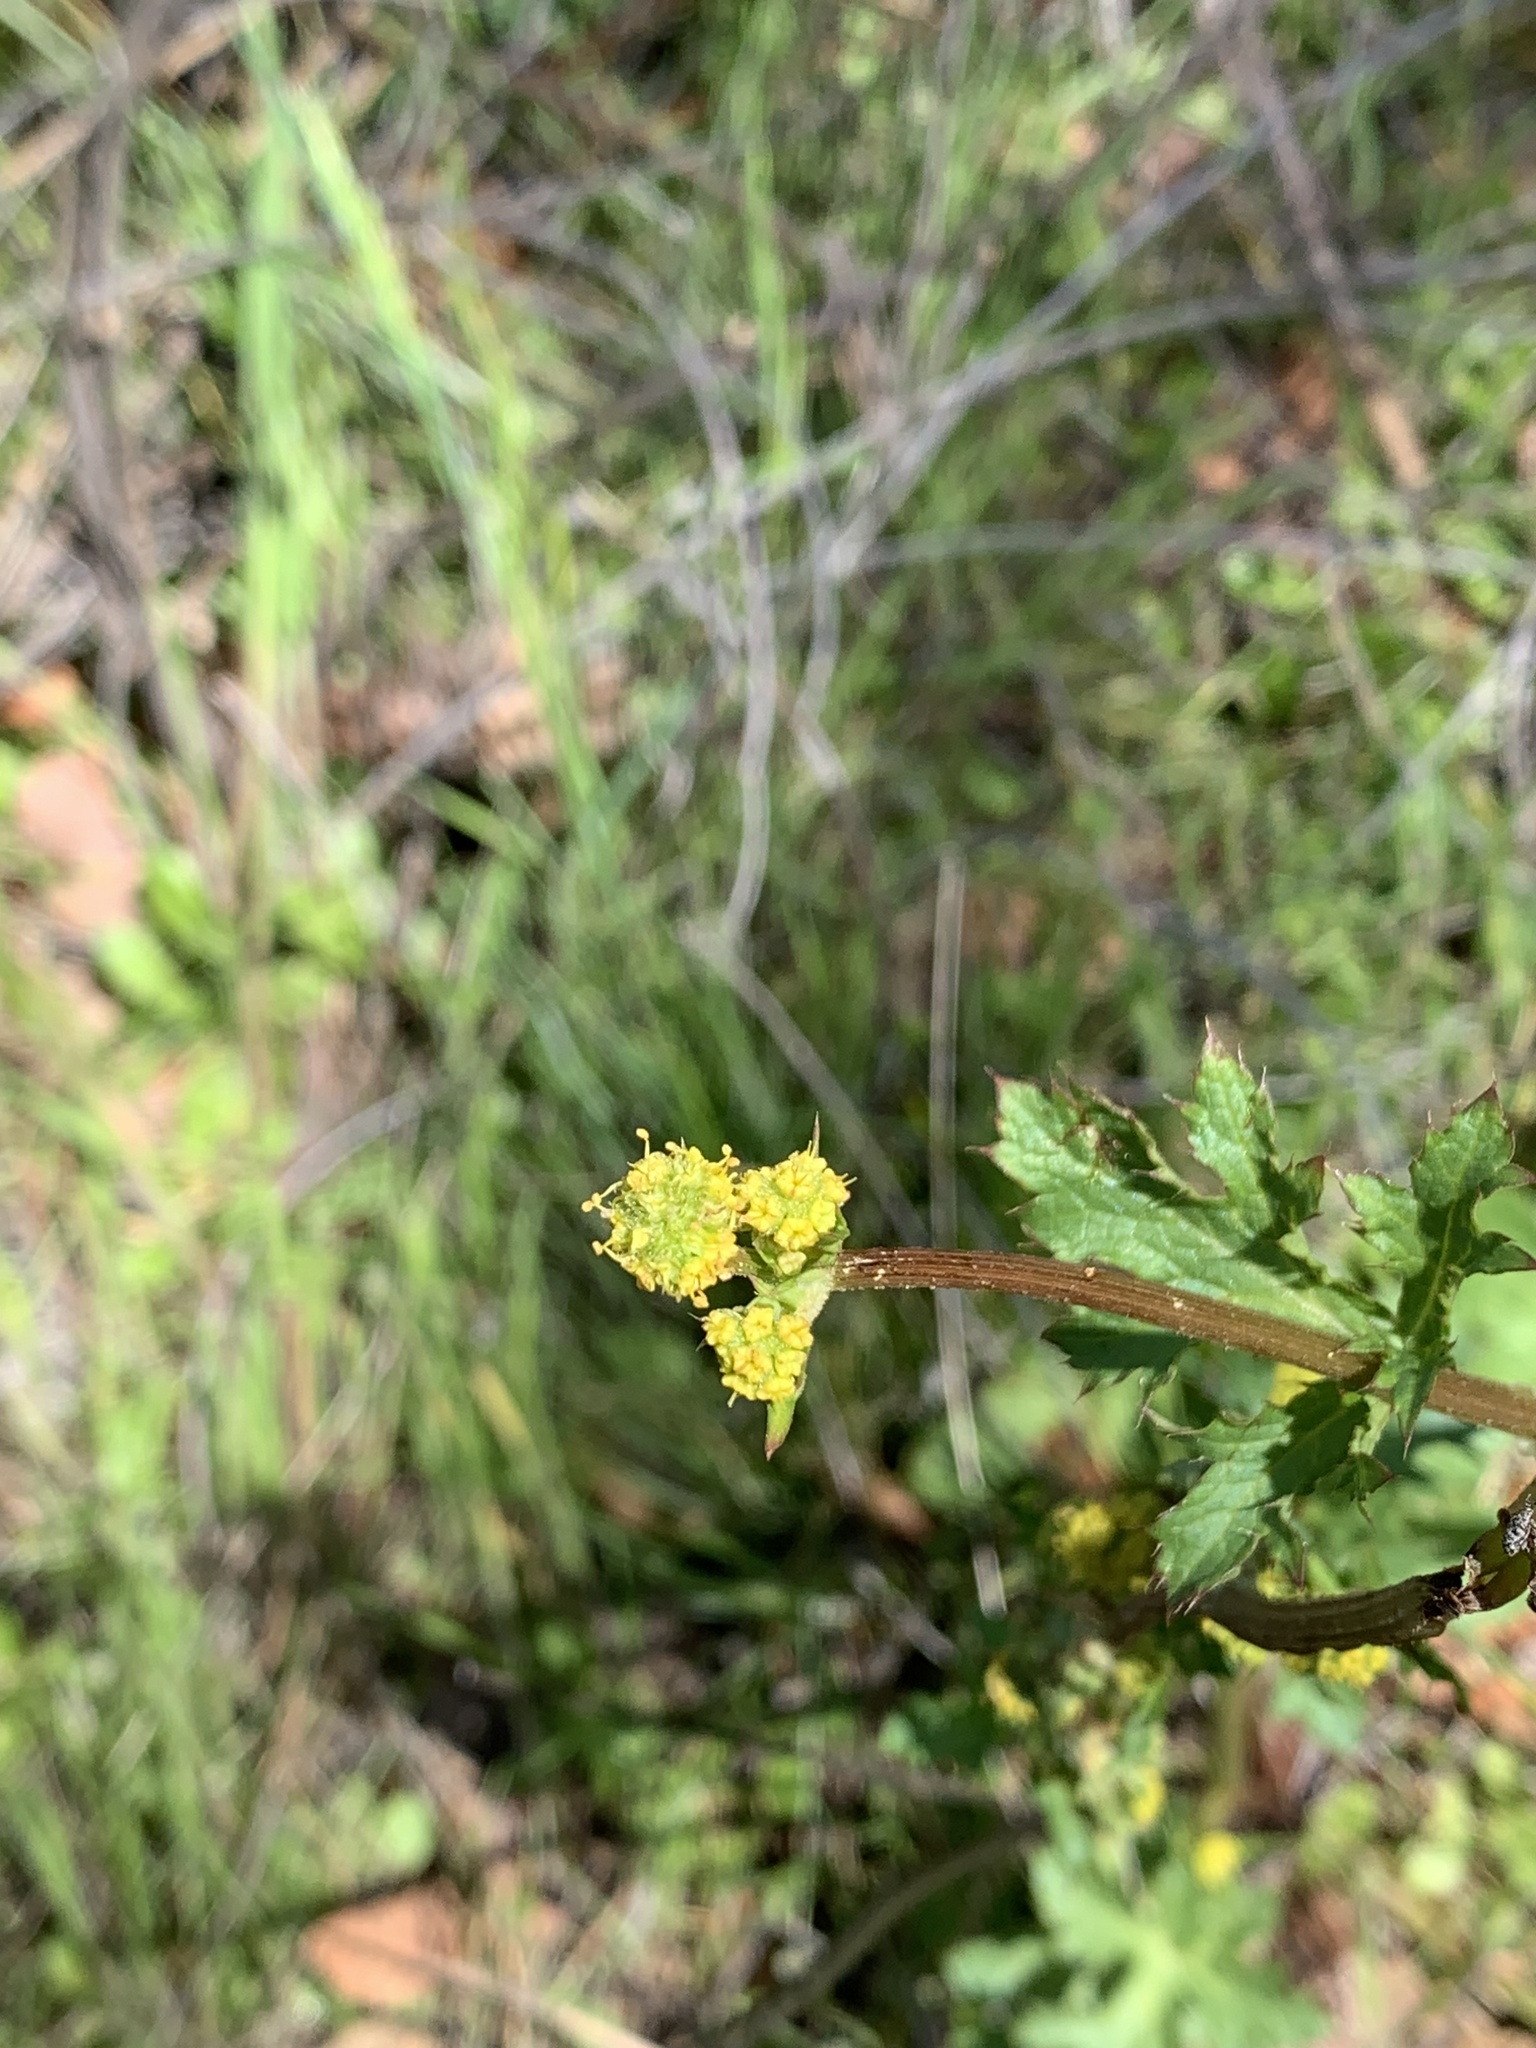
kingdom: Plantae
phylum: Tracheophyta
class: Magnoliopsida
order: Apiales
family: Apiaceae
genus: Sanicula
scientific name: Sanicula crassicaulis
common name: Western snakeroot
